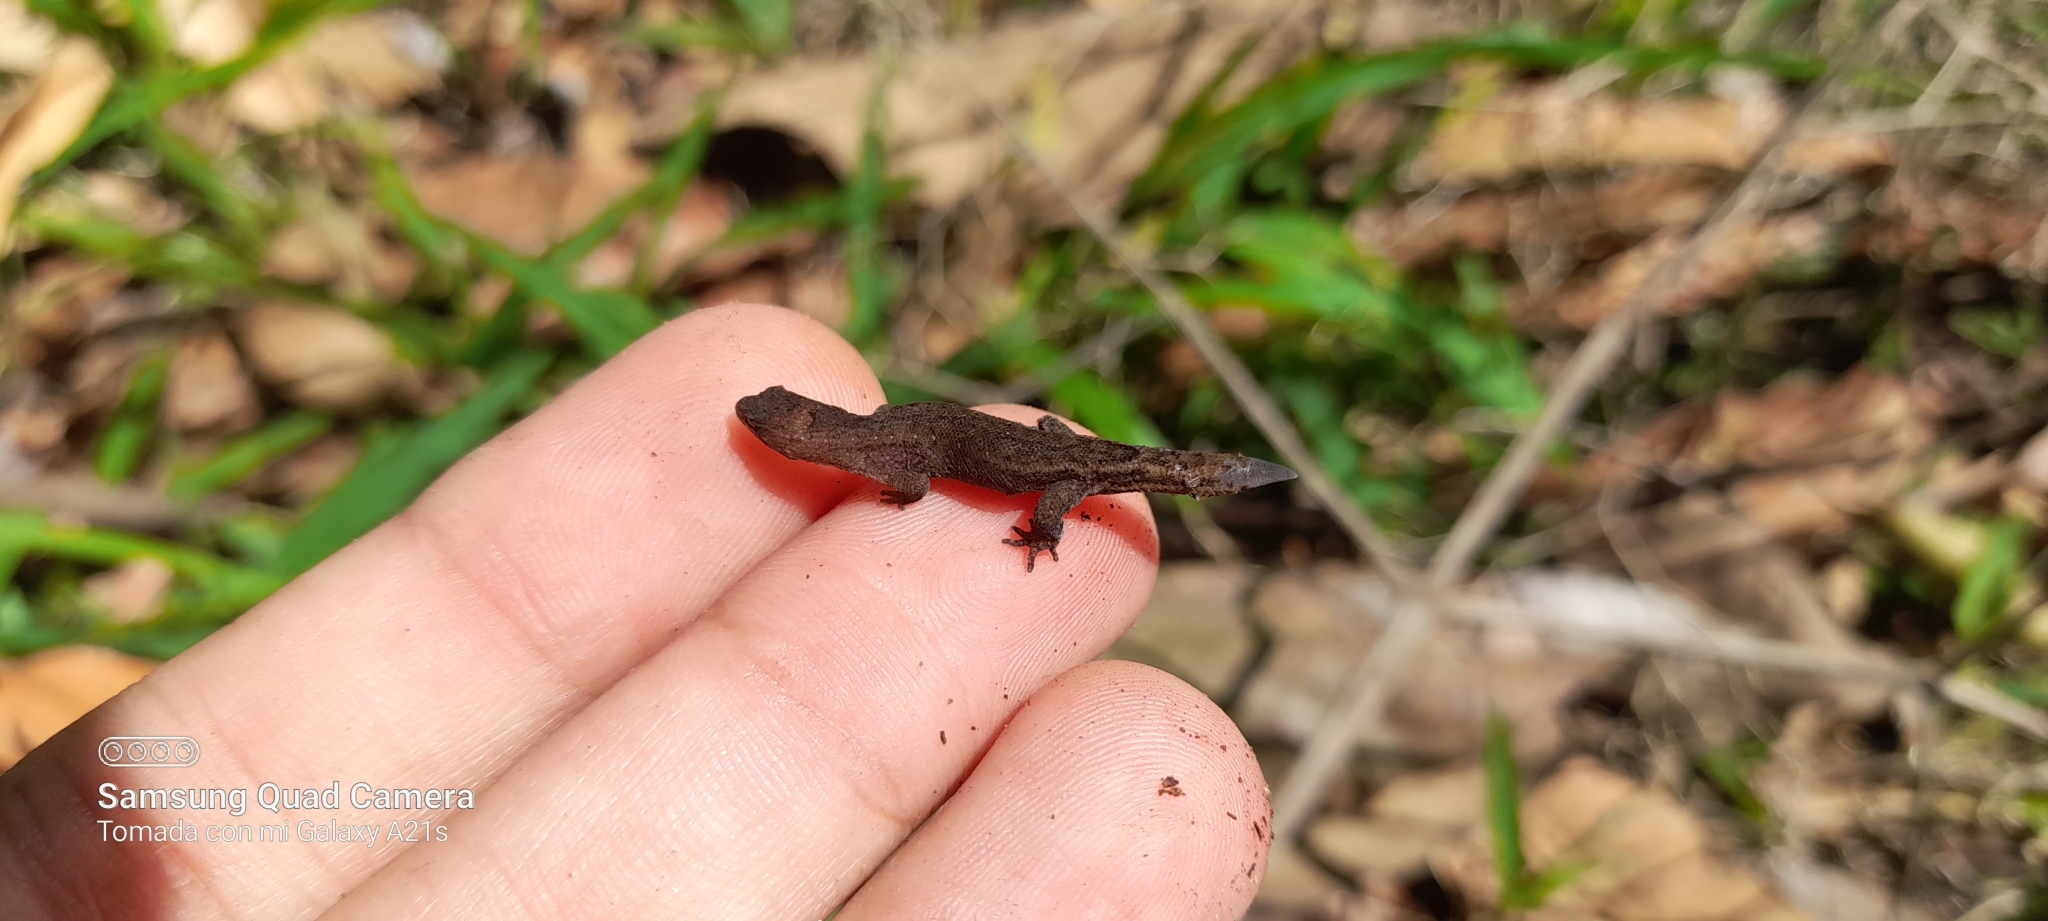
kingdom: Animalia
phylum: Chordata
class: Squamata
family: Sphaerodactylidae
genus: Lepidoblepharis
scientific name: Lepidoblepharis sanctaemartae
